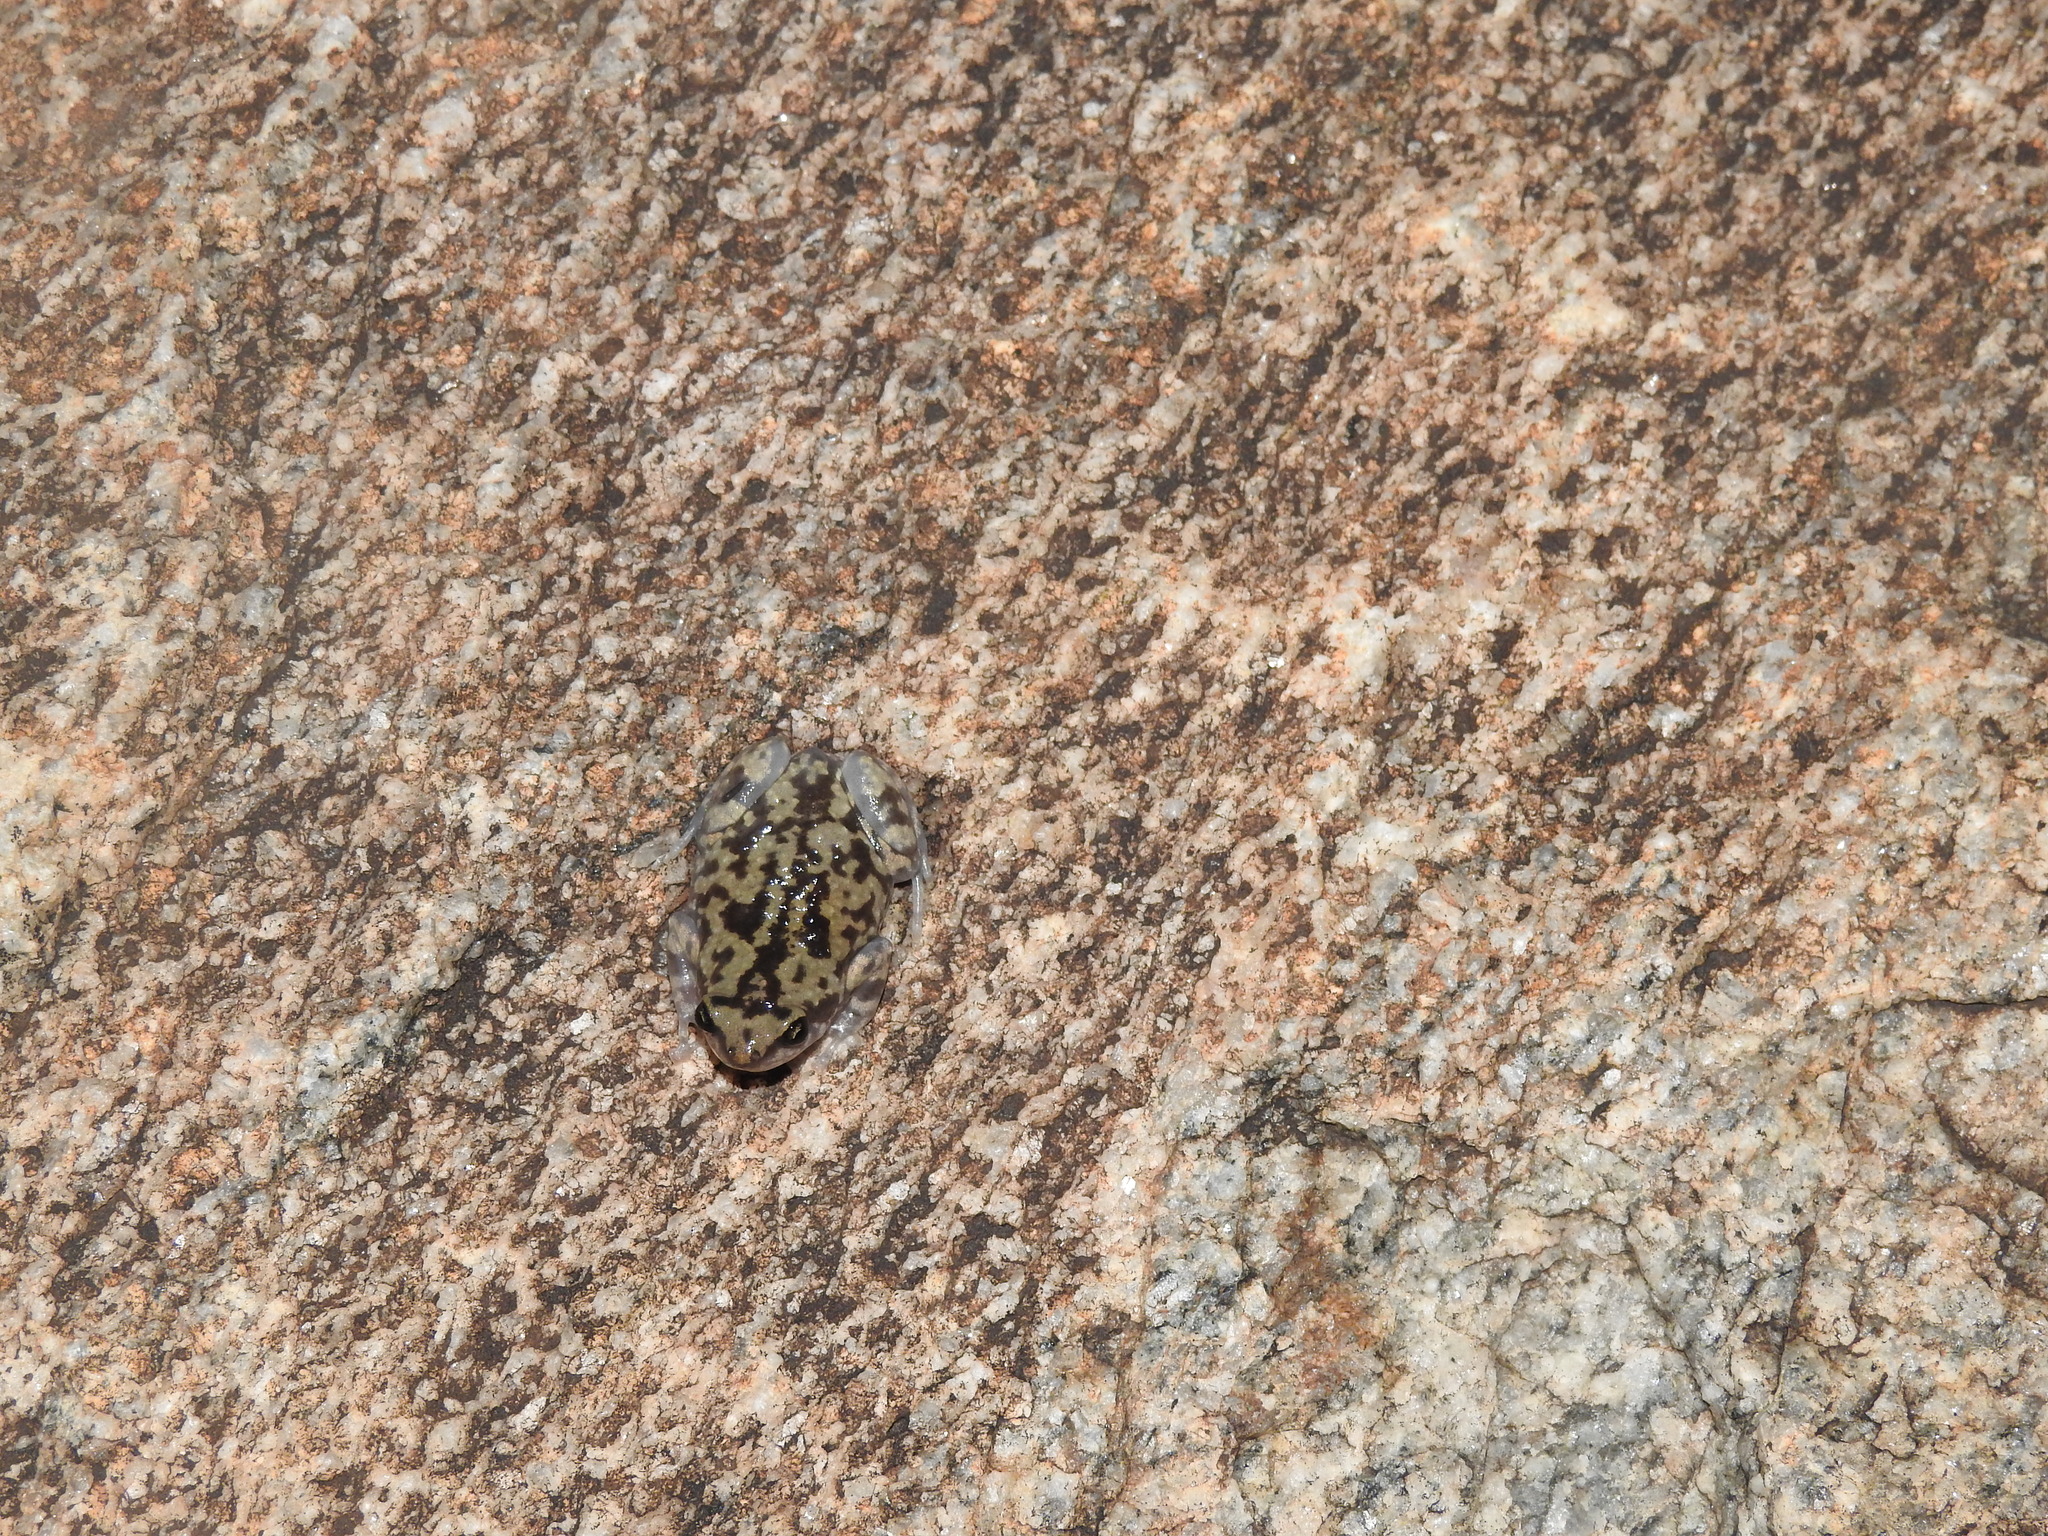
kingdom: Animalia
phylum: Chordata
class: Amphibia
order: Anura
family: Microhylidae
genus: Uperodon
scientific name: Uperodon variegatus
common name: Eluru dot frog
